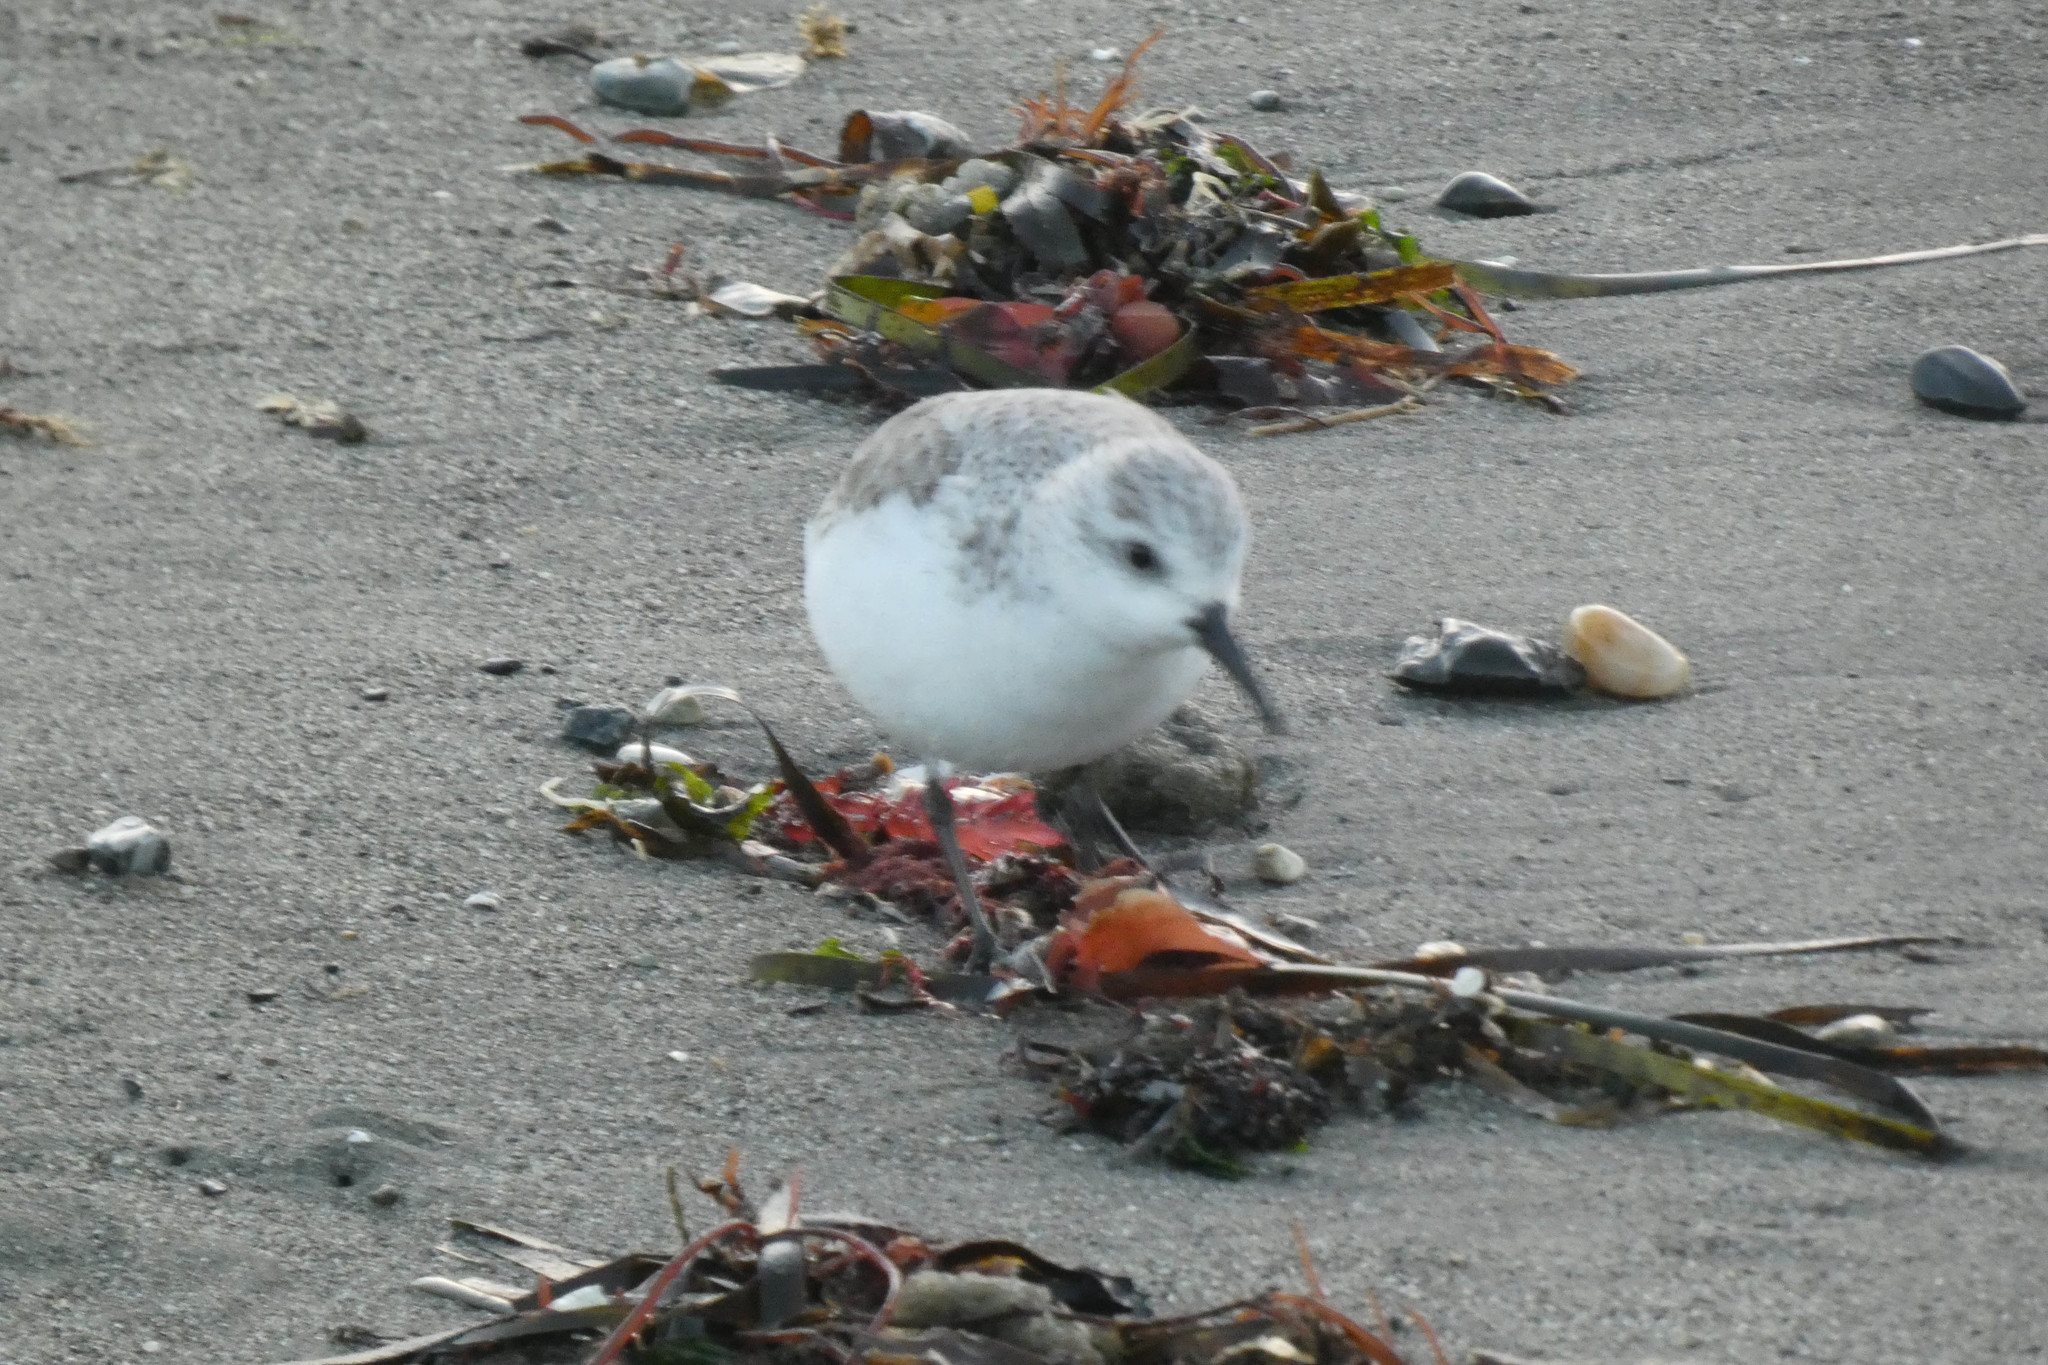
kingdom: Animalia
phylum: Chordata
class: Aves
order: Charadriiformes
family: Scolopacidae
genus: Calidris
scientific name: Calidris alba
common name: Sanderling
